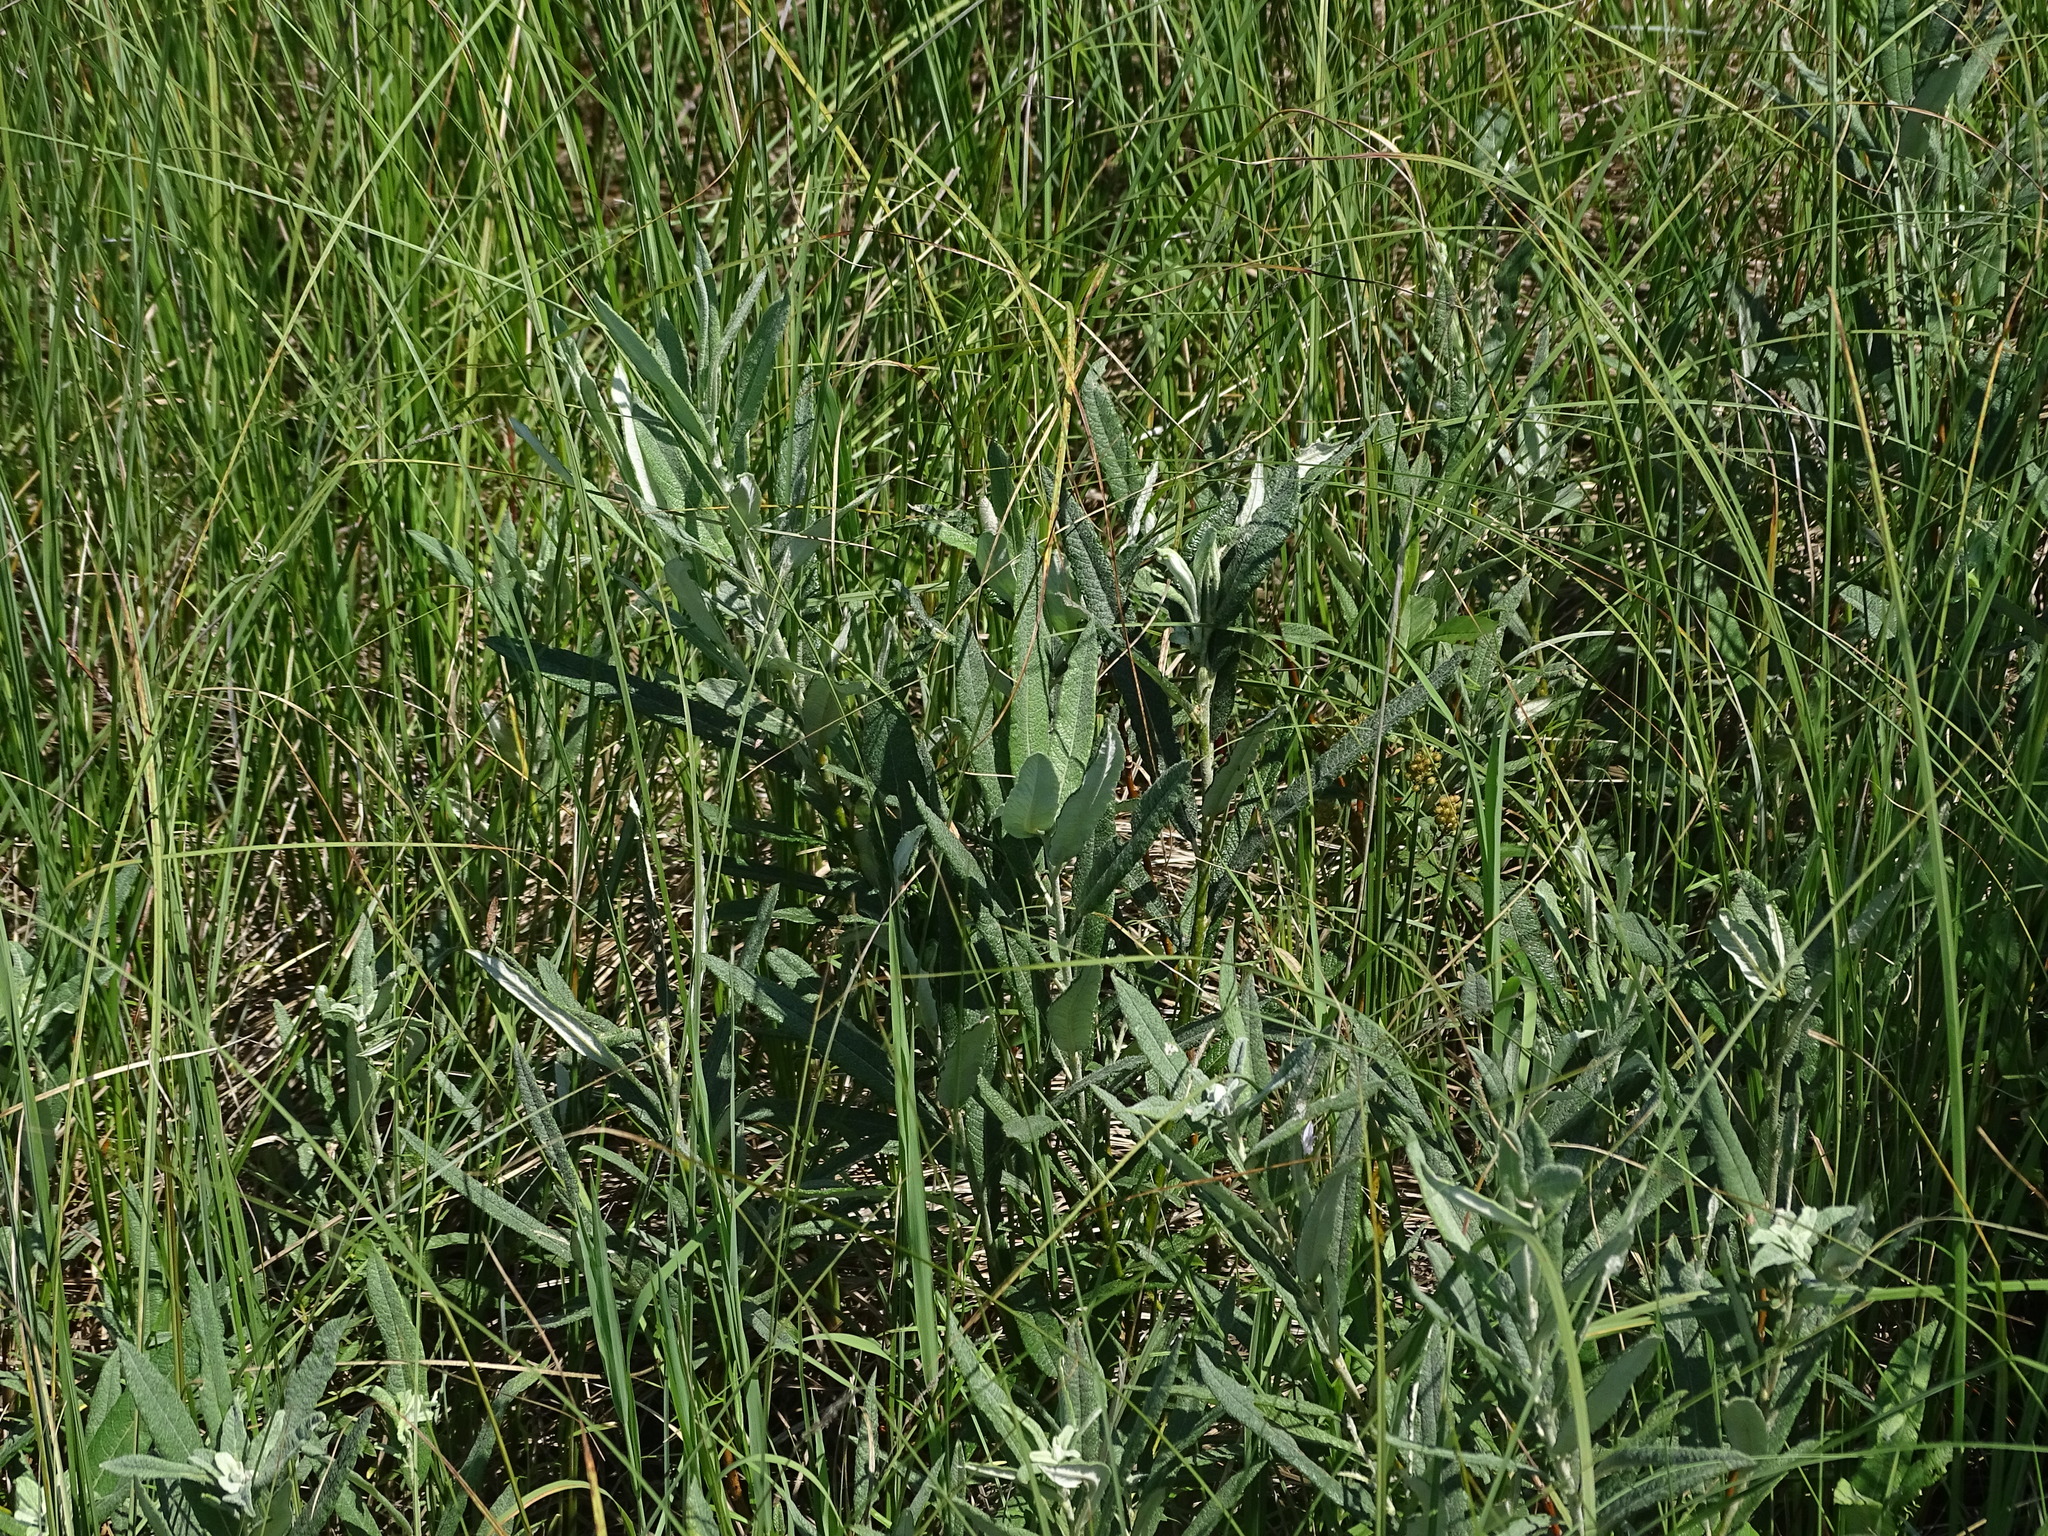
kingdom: Plantae
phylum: Tracheophyta
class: Magnoliopsida
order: Malpighiales
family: Salicaceae
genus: Salix
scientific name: Salix candida
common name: Hoary willow
